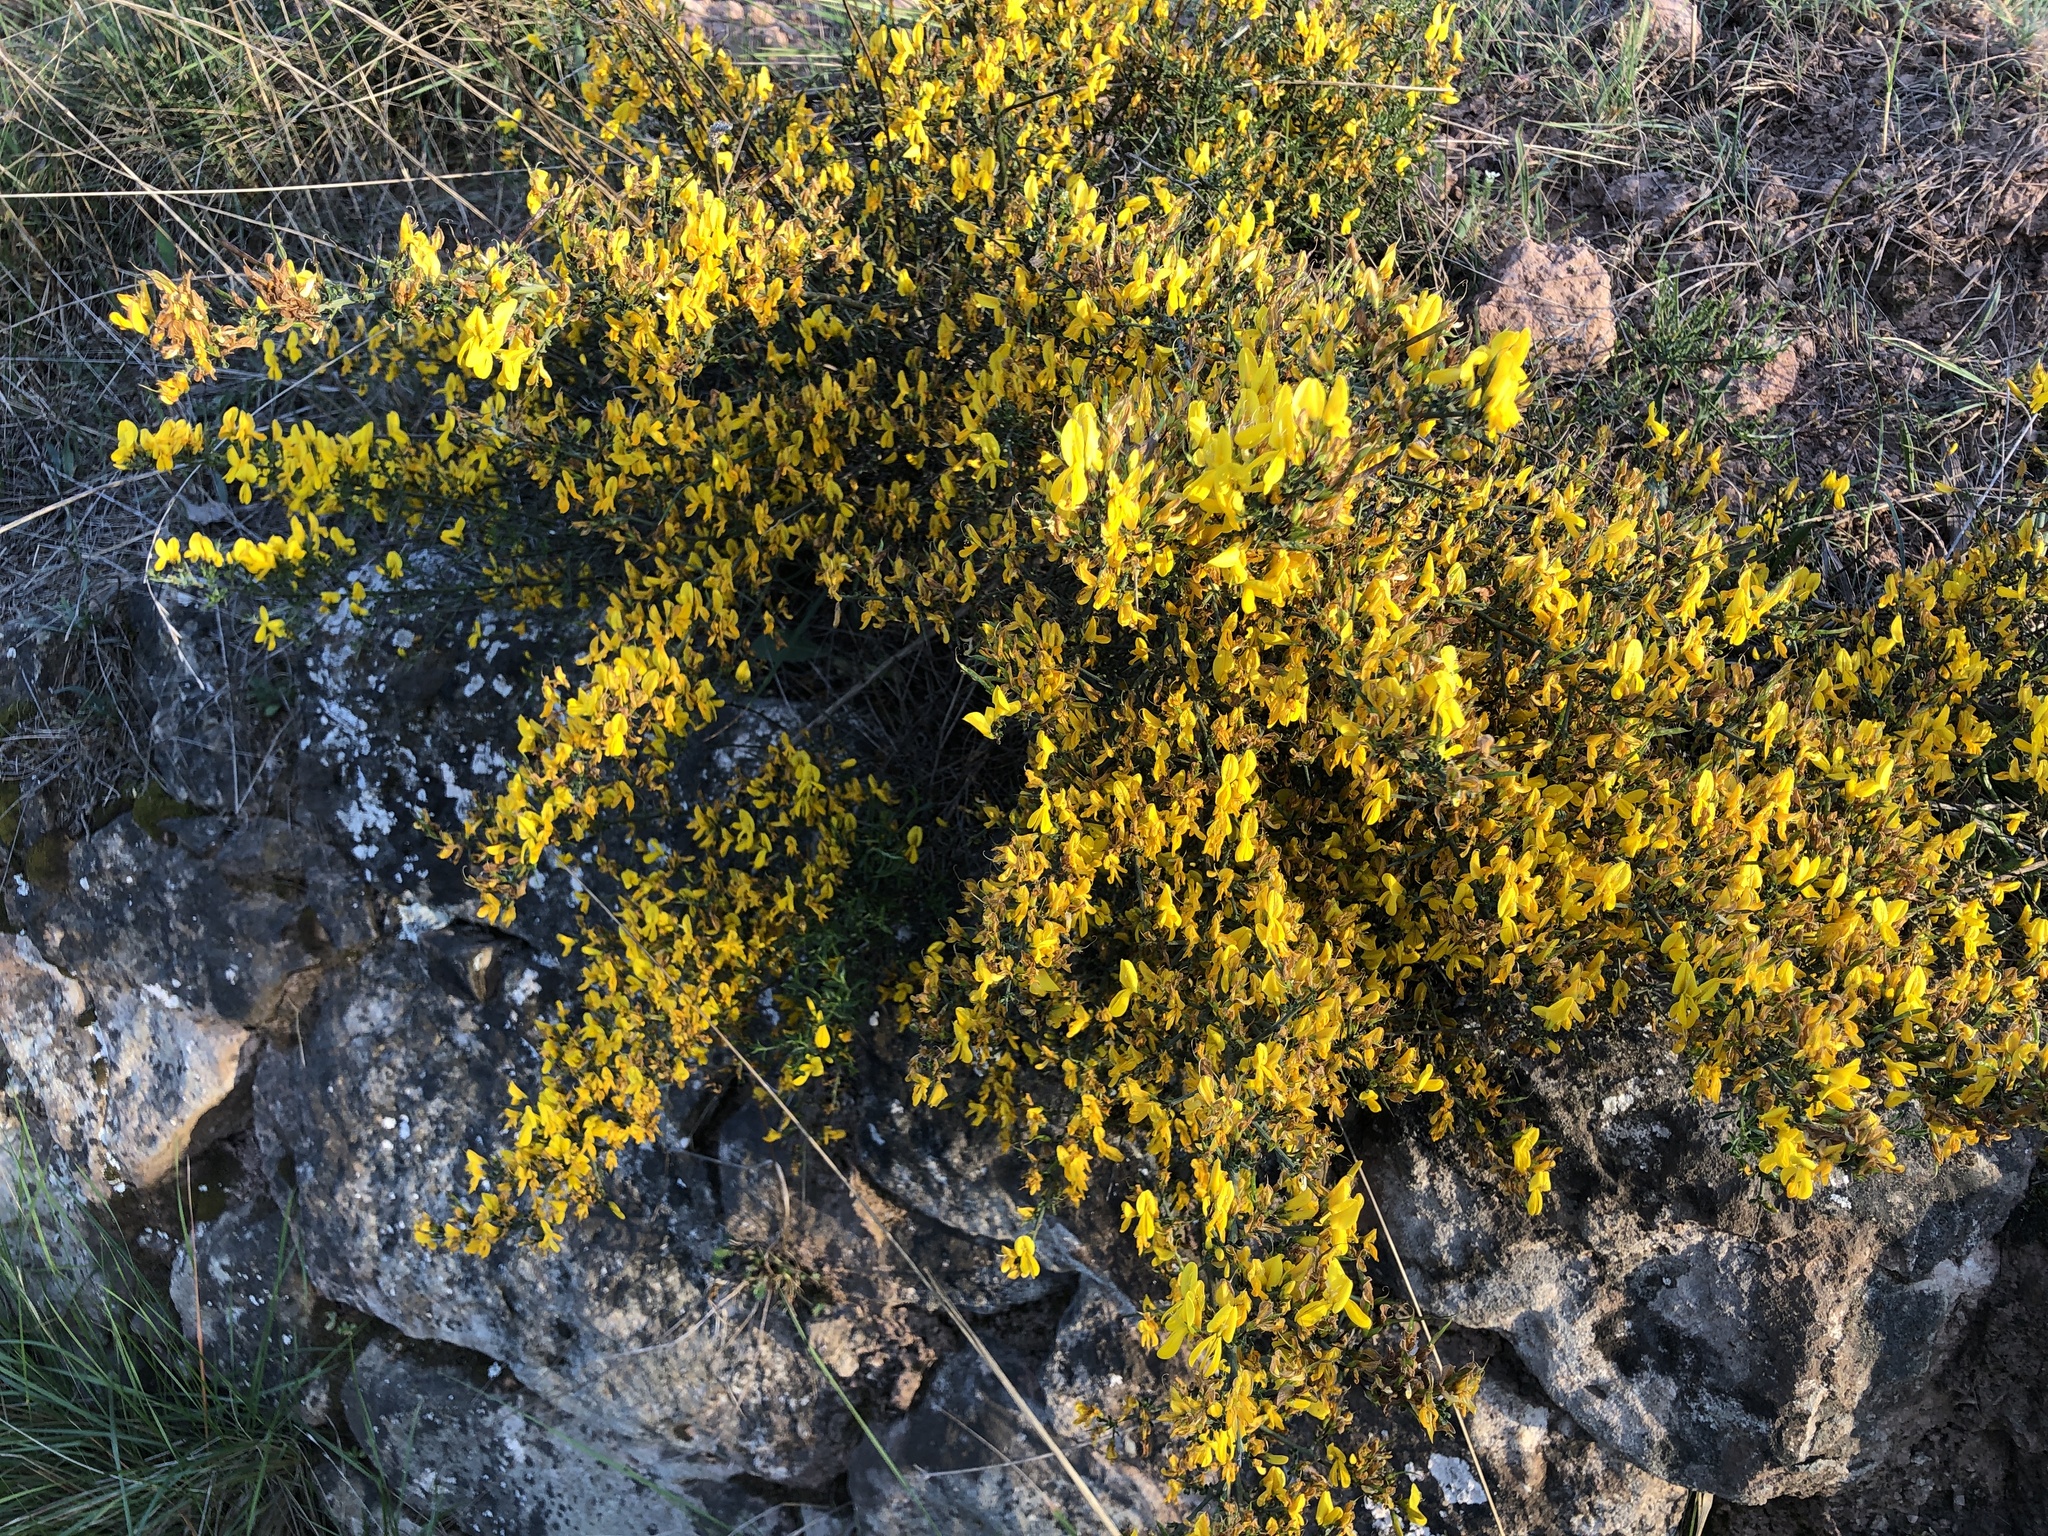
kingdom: Plantae
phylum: Tracheophyta
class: Magnoliopsida
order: Fabales
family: Fabaceae
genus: Genista
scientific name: Genista scorpius
